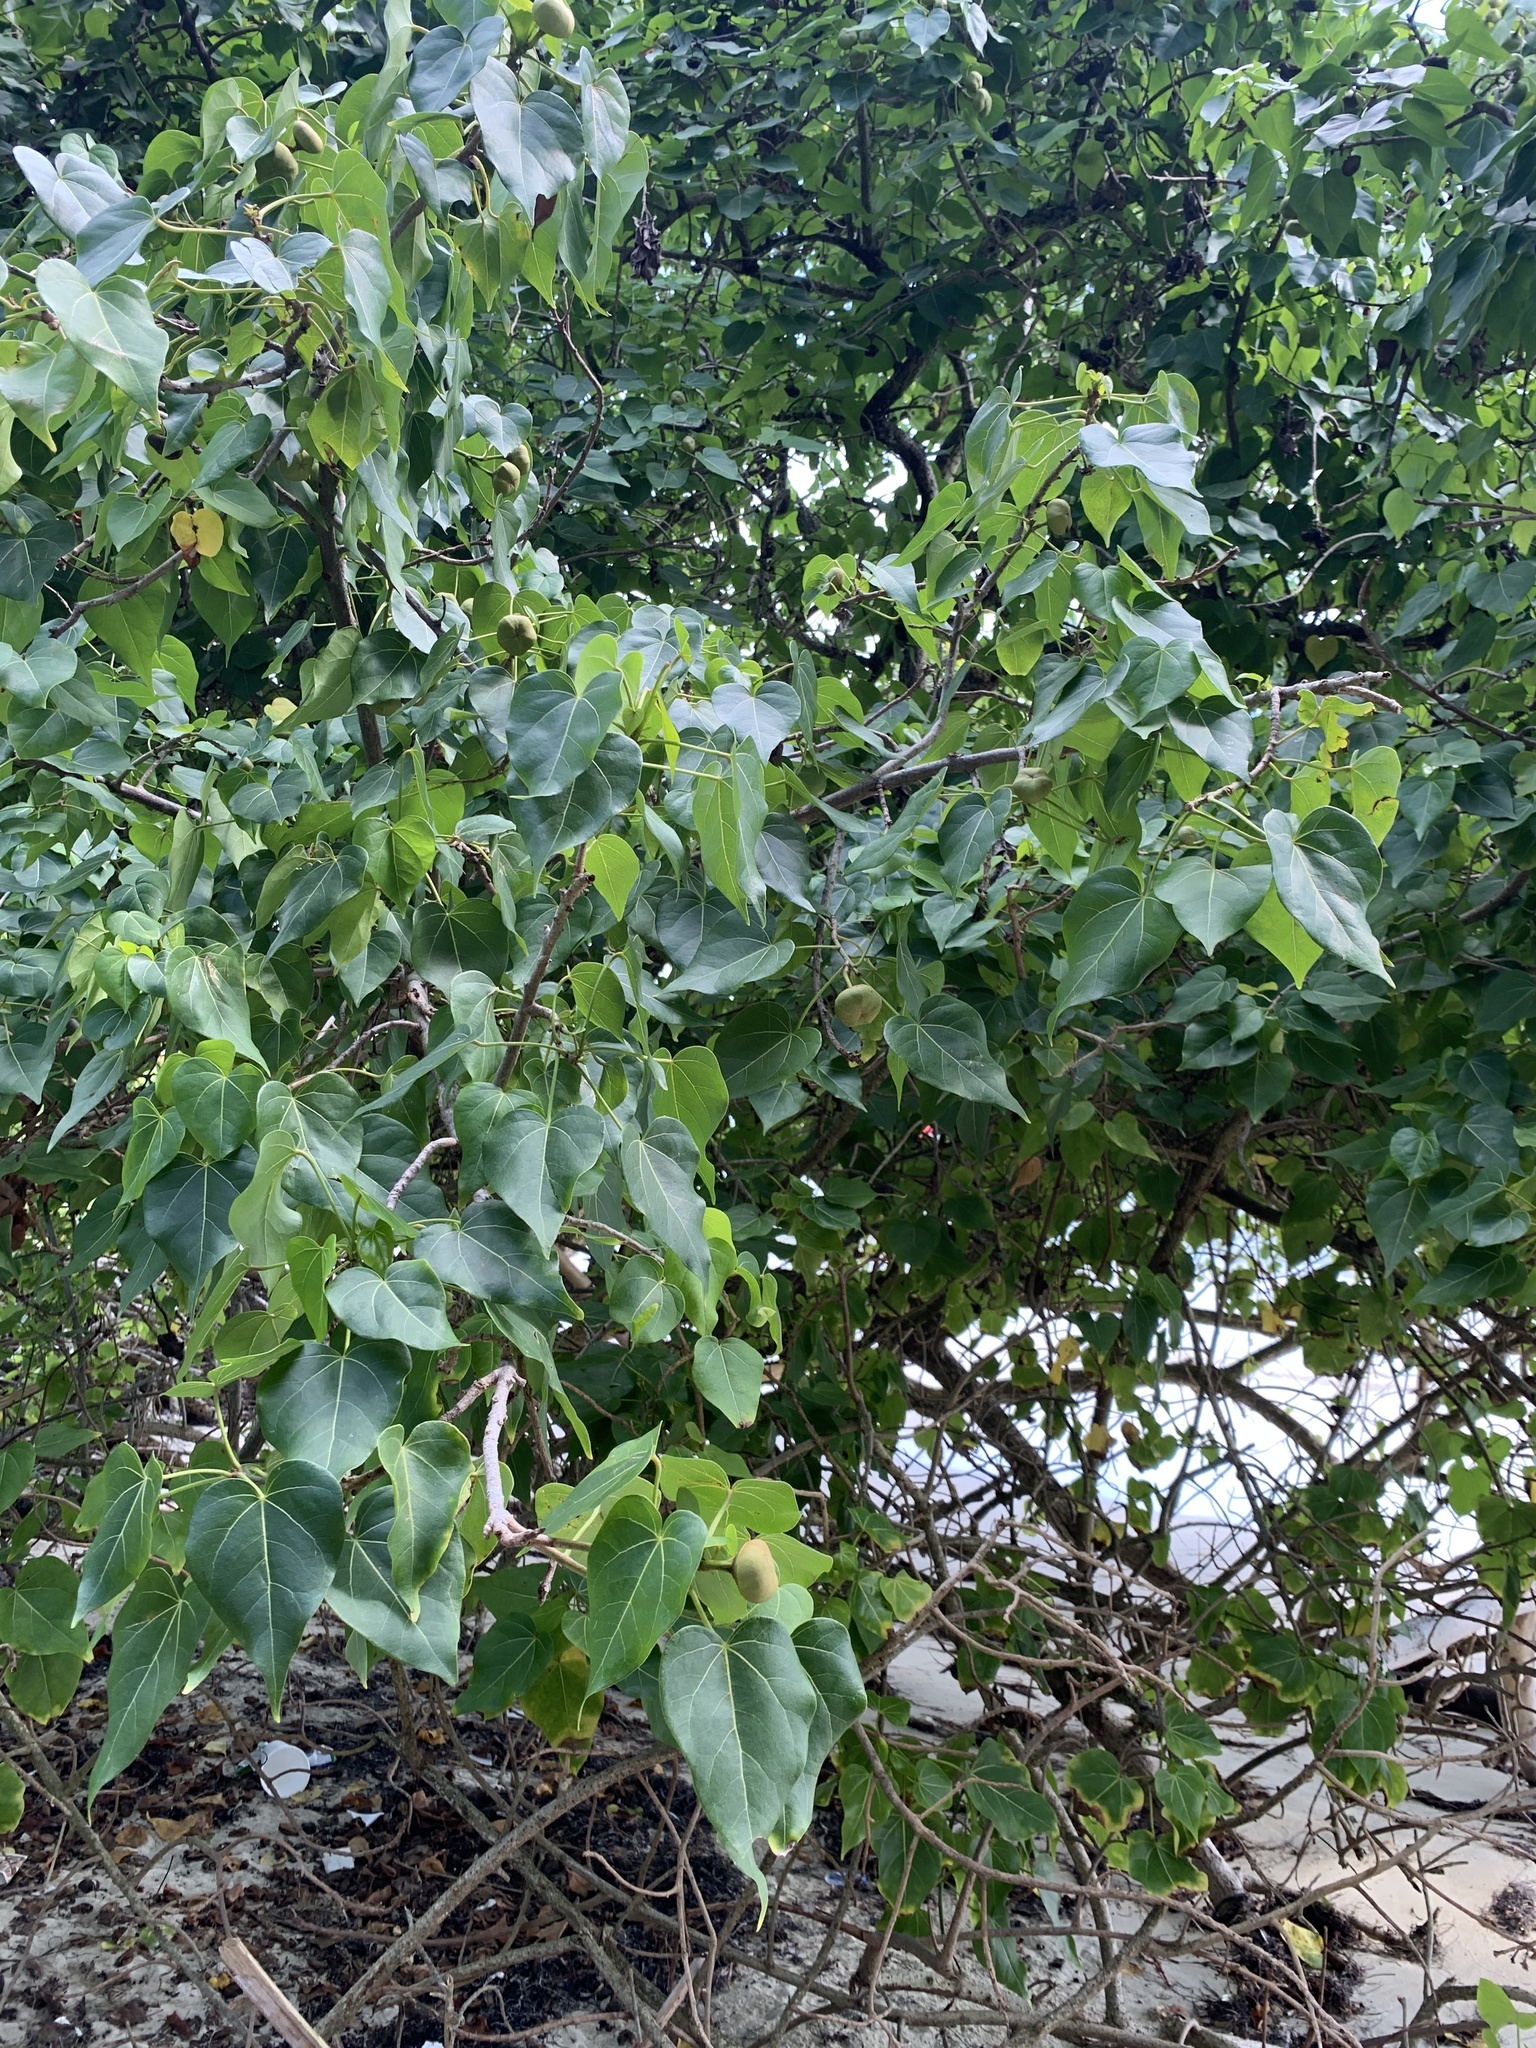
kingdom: Plantae
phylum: Tracheophyta
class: Magnoliopsida
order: Malvales
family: Malvaceae
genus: Thespesia
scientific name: Thespesia populnea
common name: Seaside mahoe
